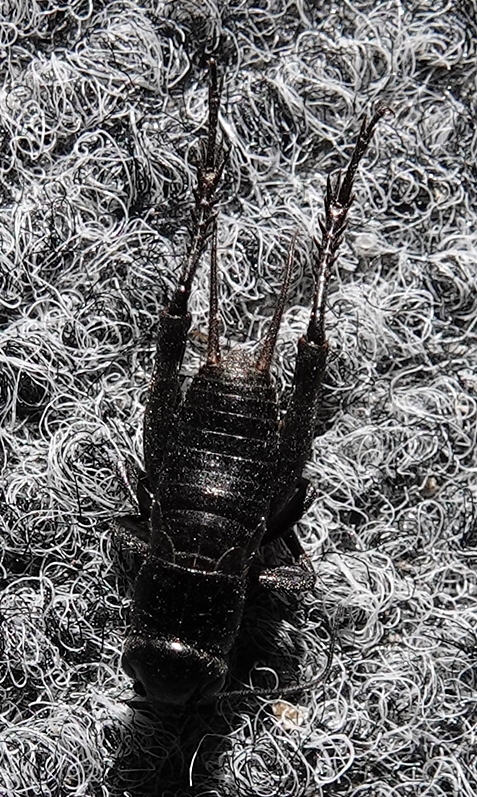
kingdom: Animalia
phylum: Arthropoda
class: Insecta
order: Orthoptera
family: Gryllidae
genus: Gryllus
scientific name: Gryllus
